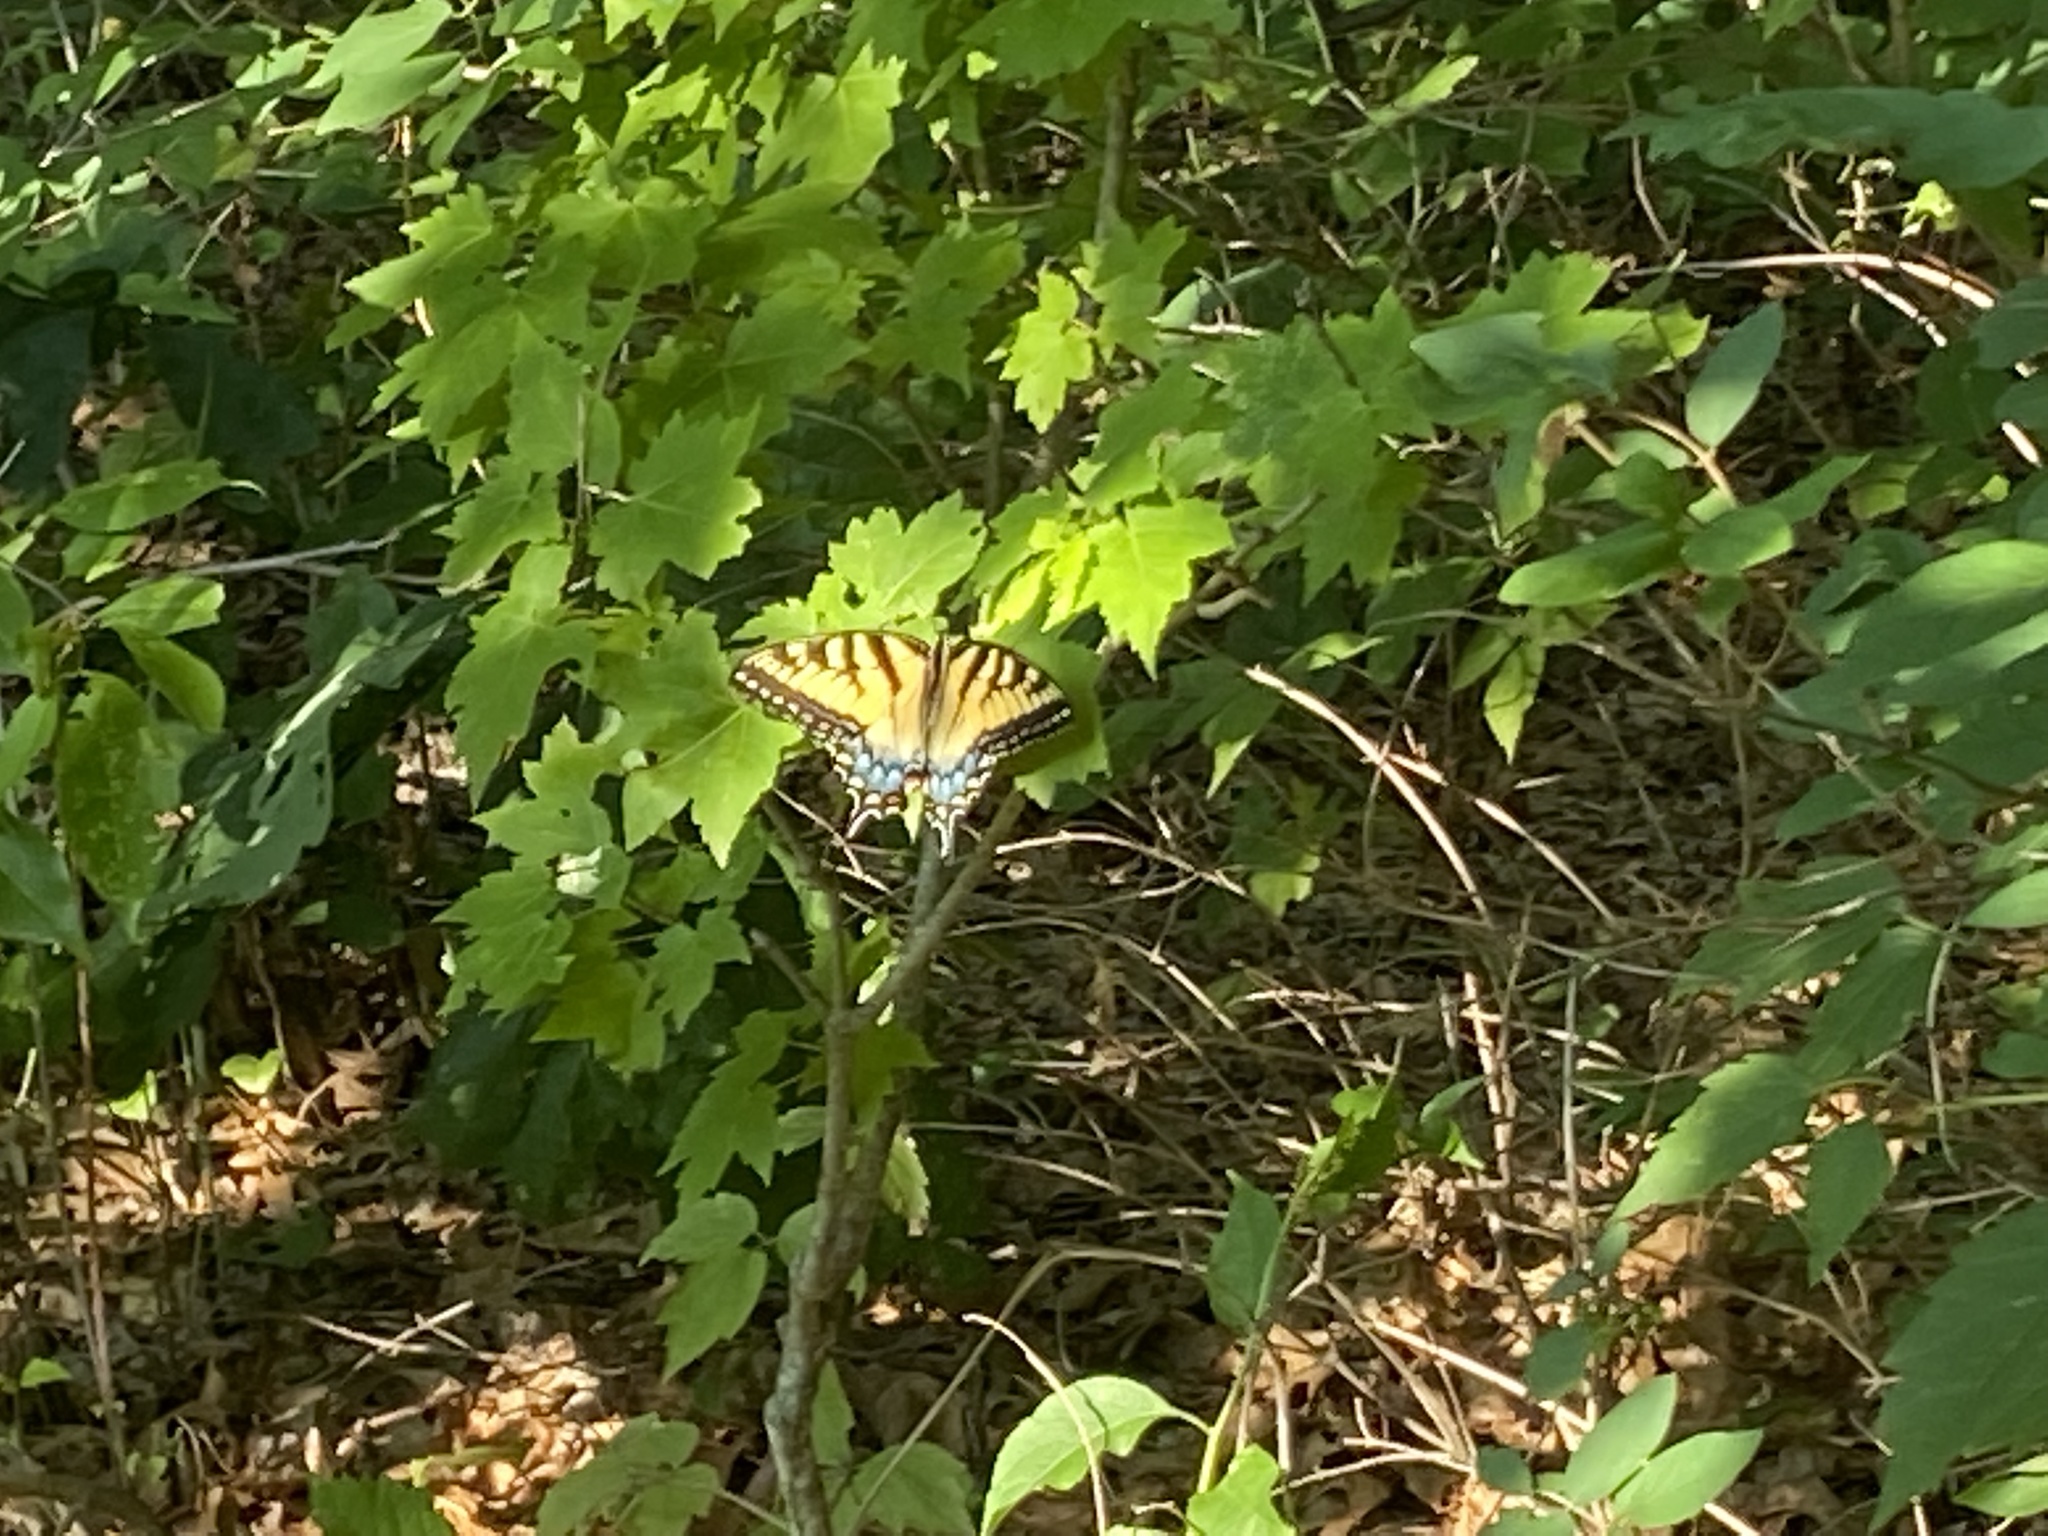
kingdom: Animalia
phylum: Arthropoda
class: Insecta
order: Lepidoptera
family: Papilionidae
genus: Papilio
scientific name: Papilio glaucus
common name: Tiger swallowtail
